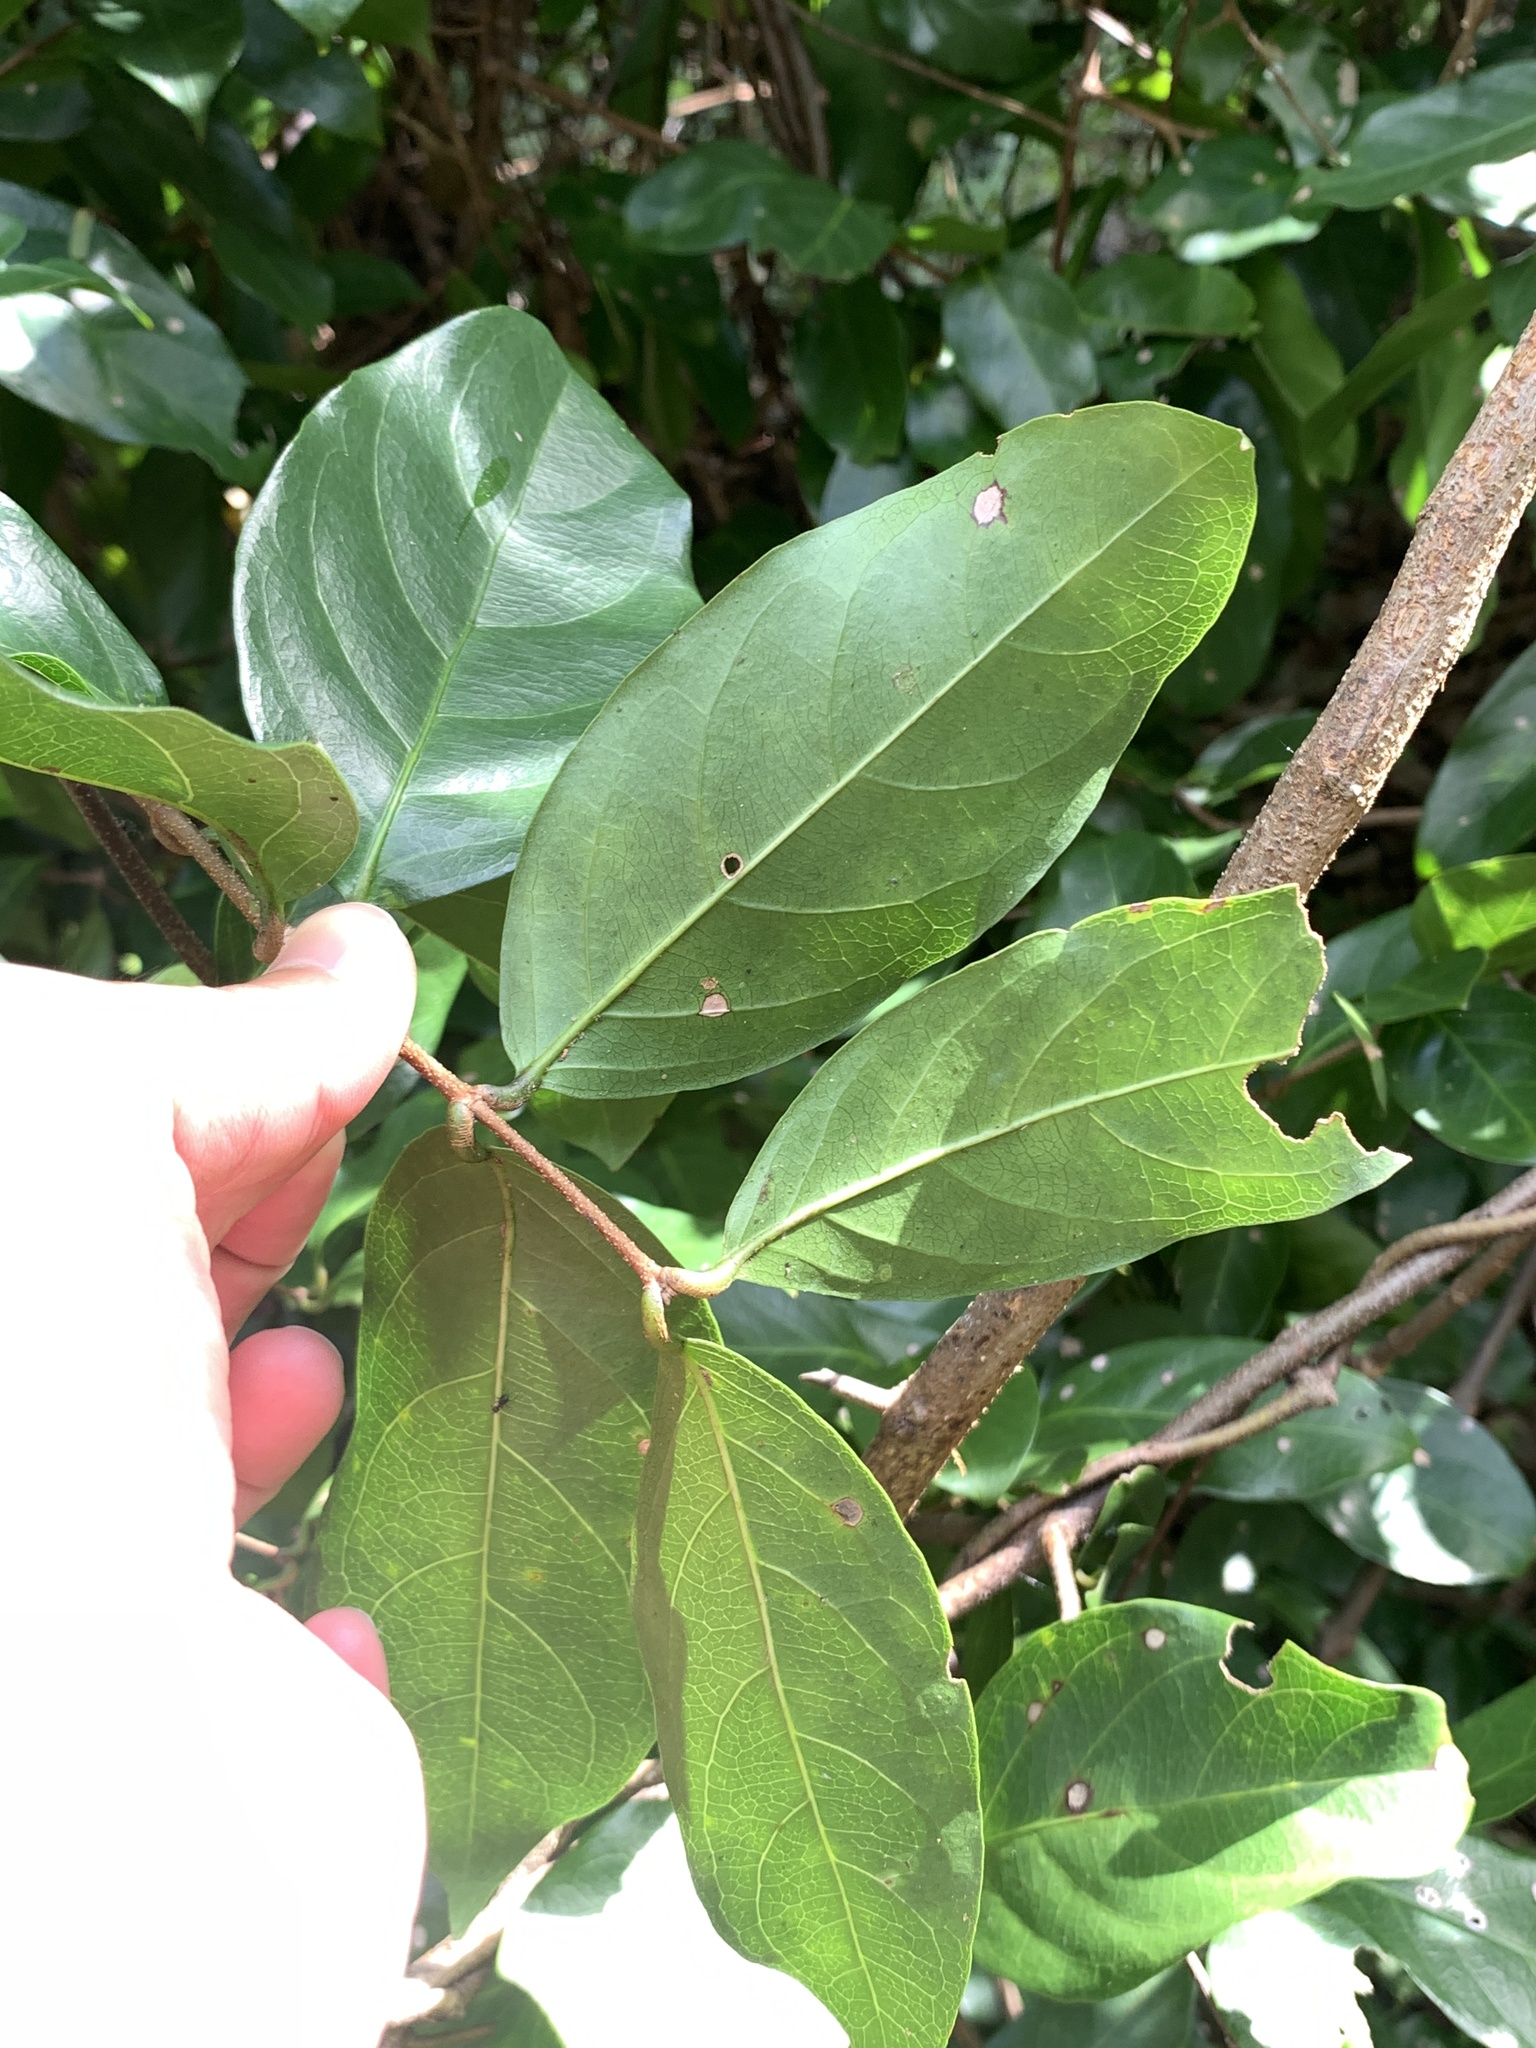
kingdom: Plantae
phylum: Tracheophyta
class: Magnoliopsida
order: Malpighiales
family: Malpighiaceae
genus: Hiptage
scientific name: Hiptage benghalensis
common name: Hiptage
